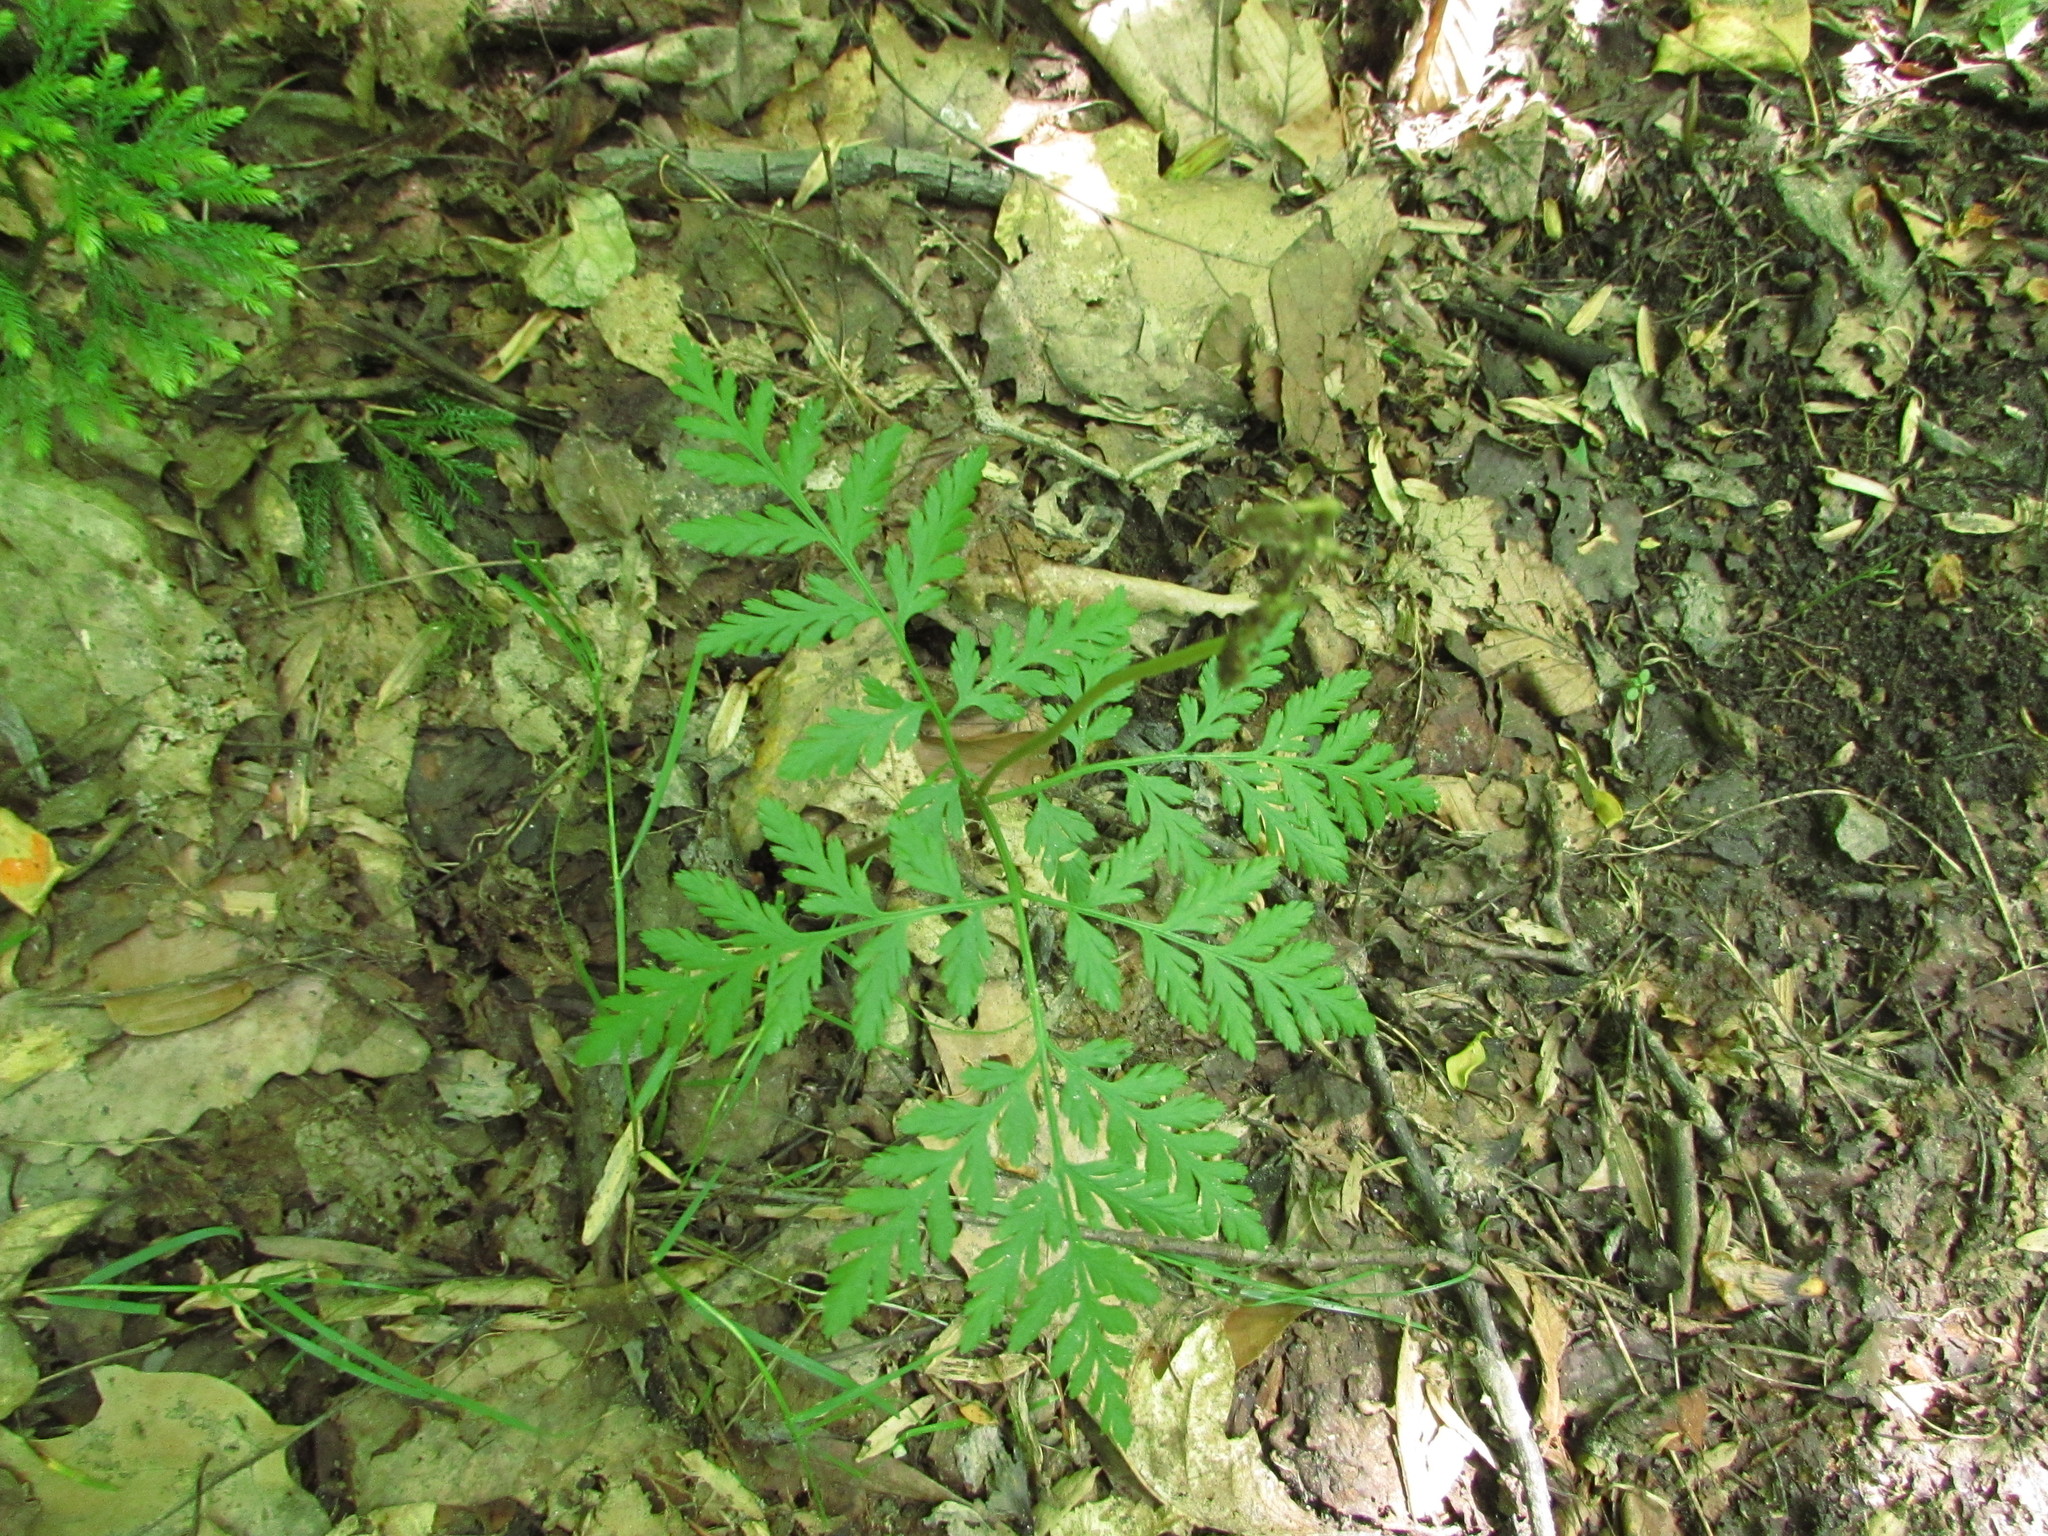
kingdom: Plantae
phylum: Tracheophyta
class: Polypodiopsida
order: Ophioglossales
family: Ophioglossaceae
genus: Botrypus
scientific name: Botrypus virginianus
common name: Common grapefern
